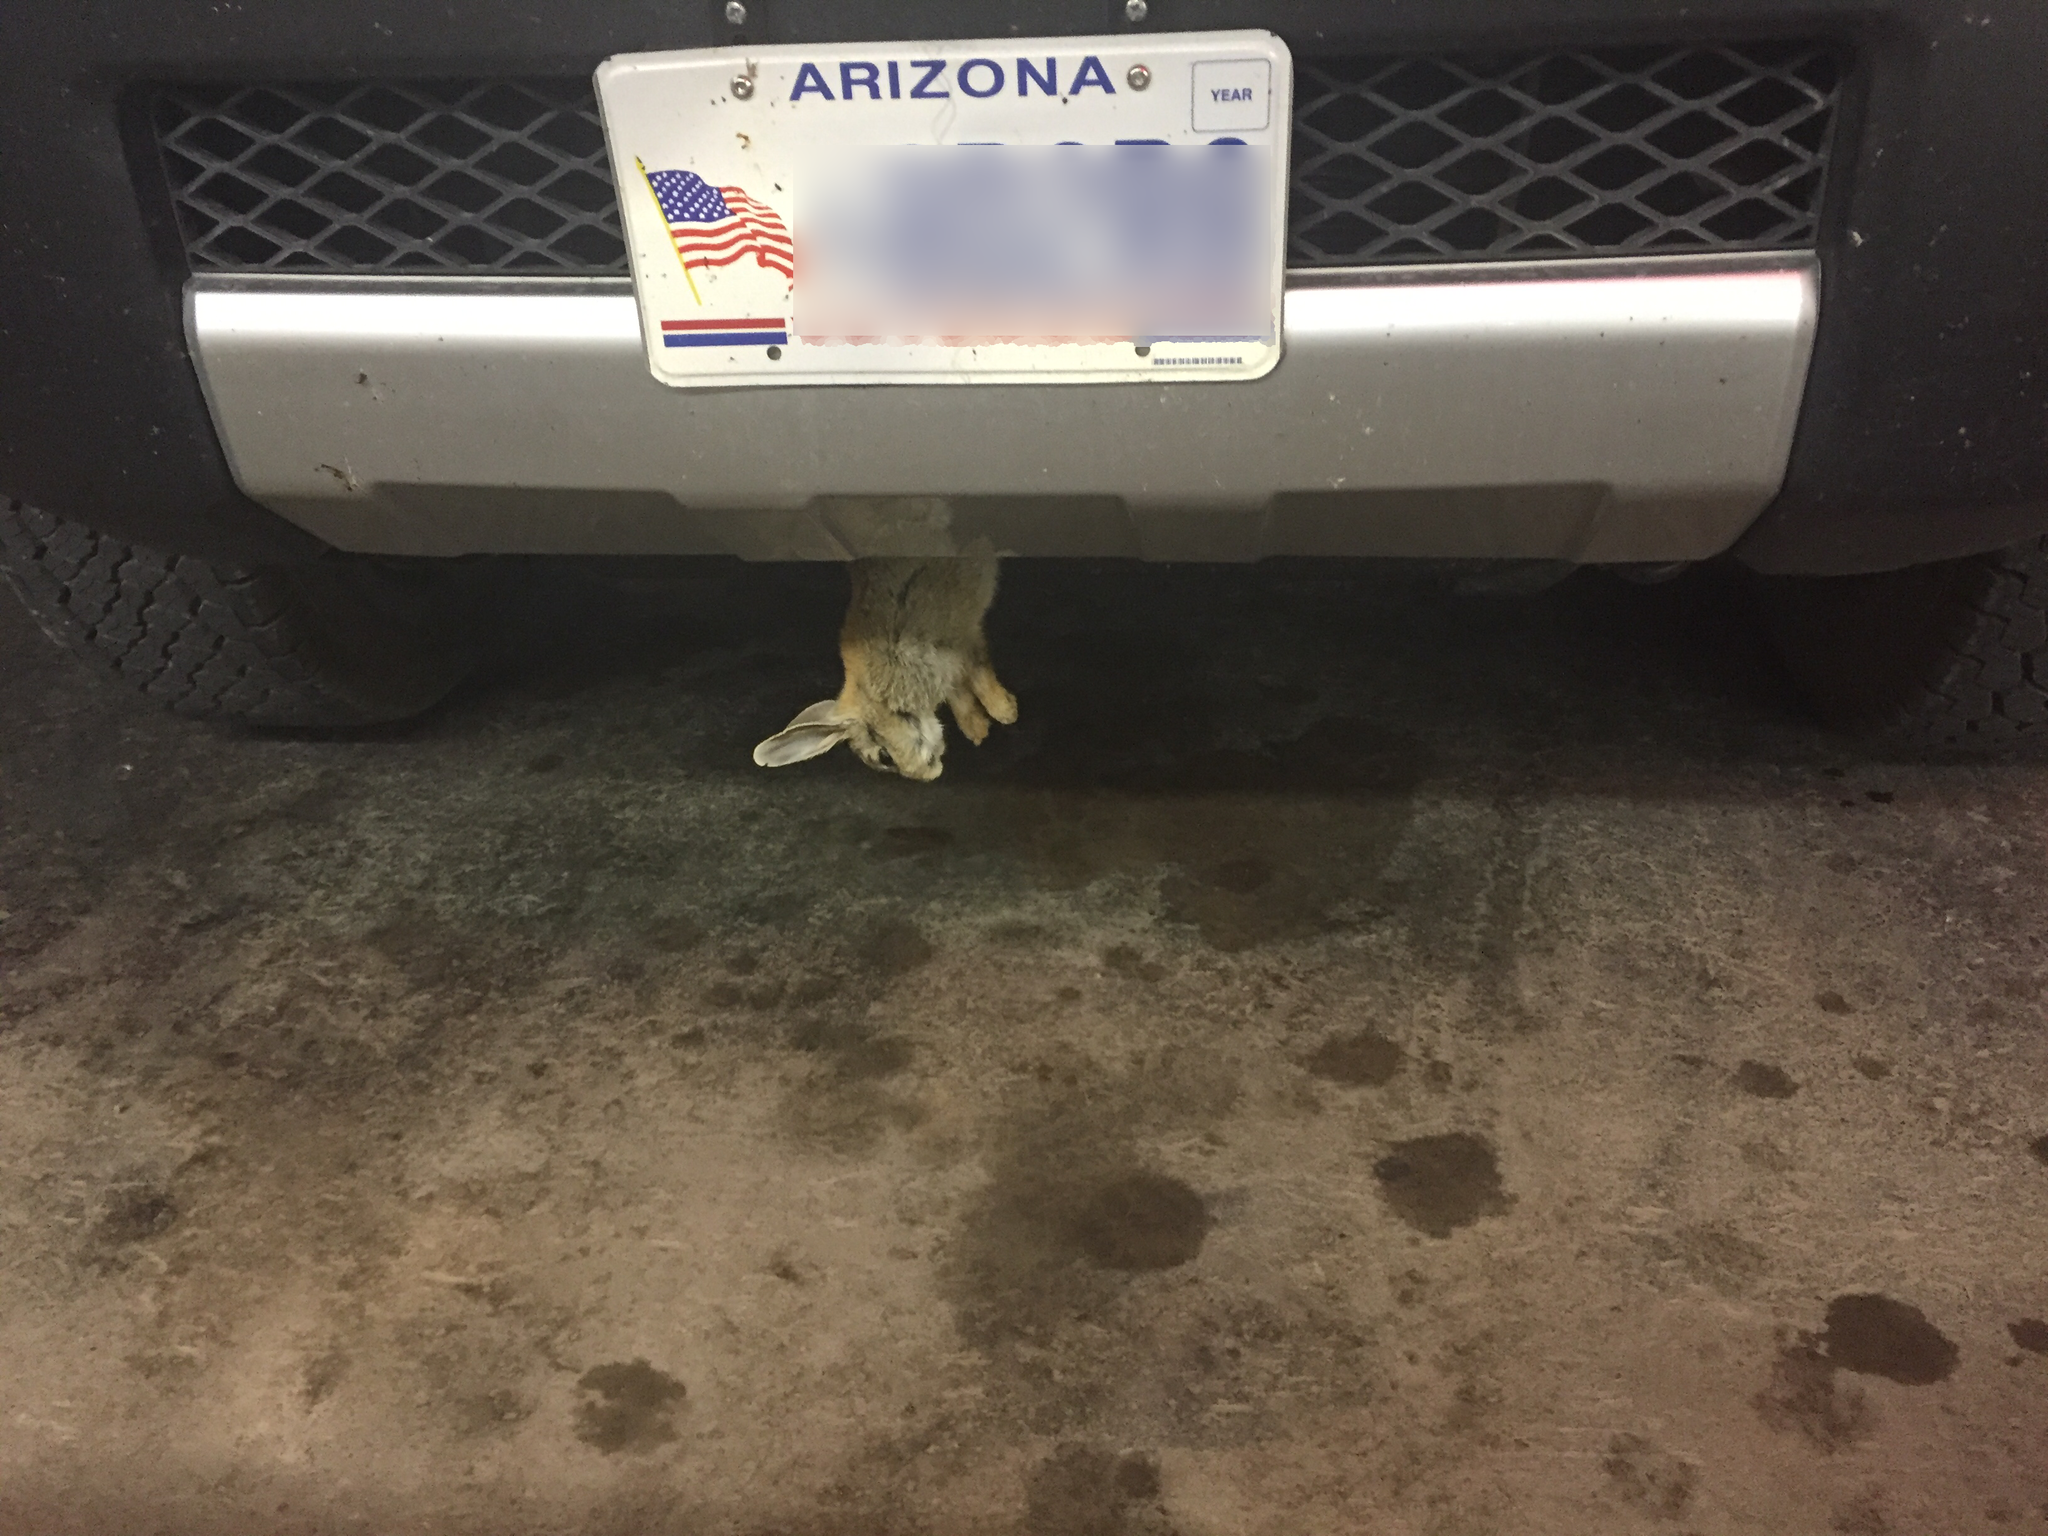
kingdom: Animalia
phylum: Chordata
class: Mammalia
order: Lagomorpha
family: Leporidae
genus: Sylvilagus
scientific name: Sylvilagus audubonii
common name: Desert cottontail
